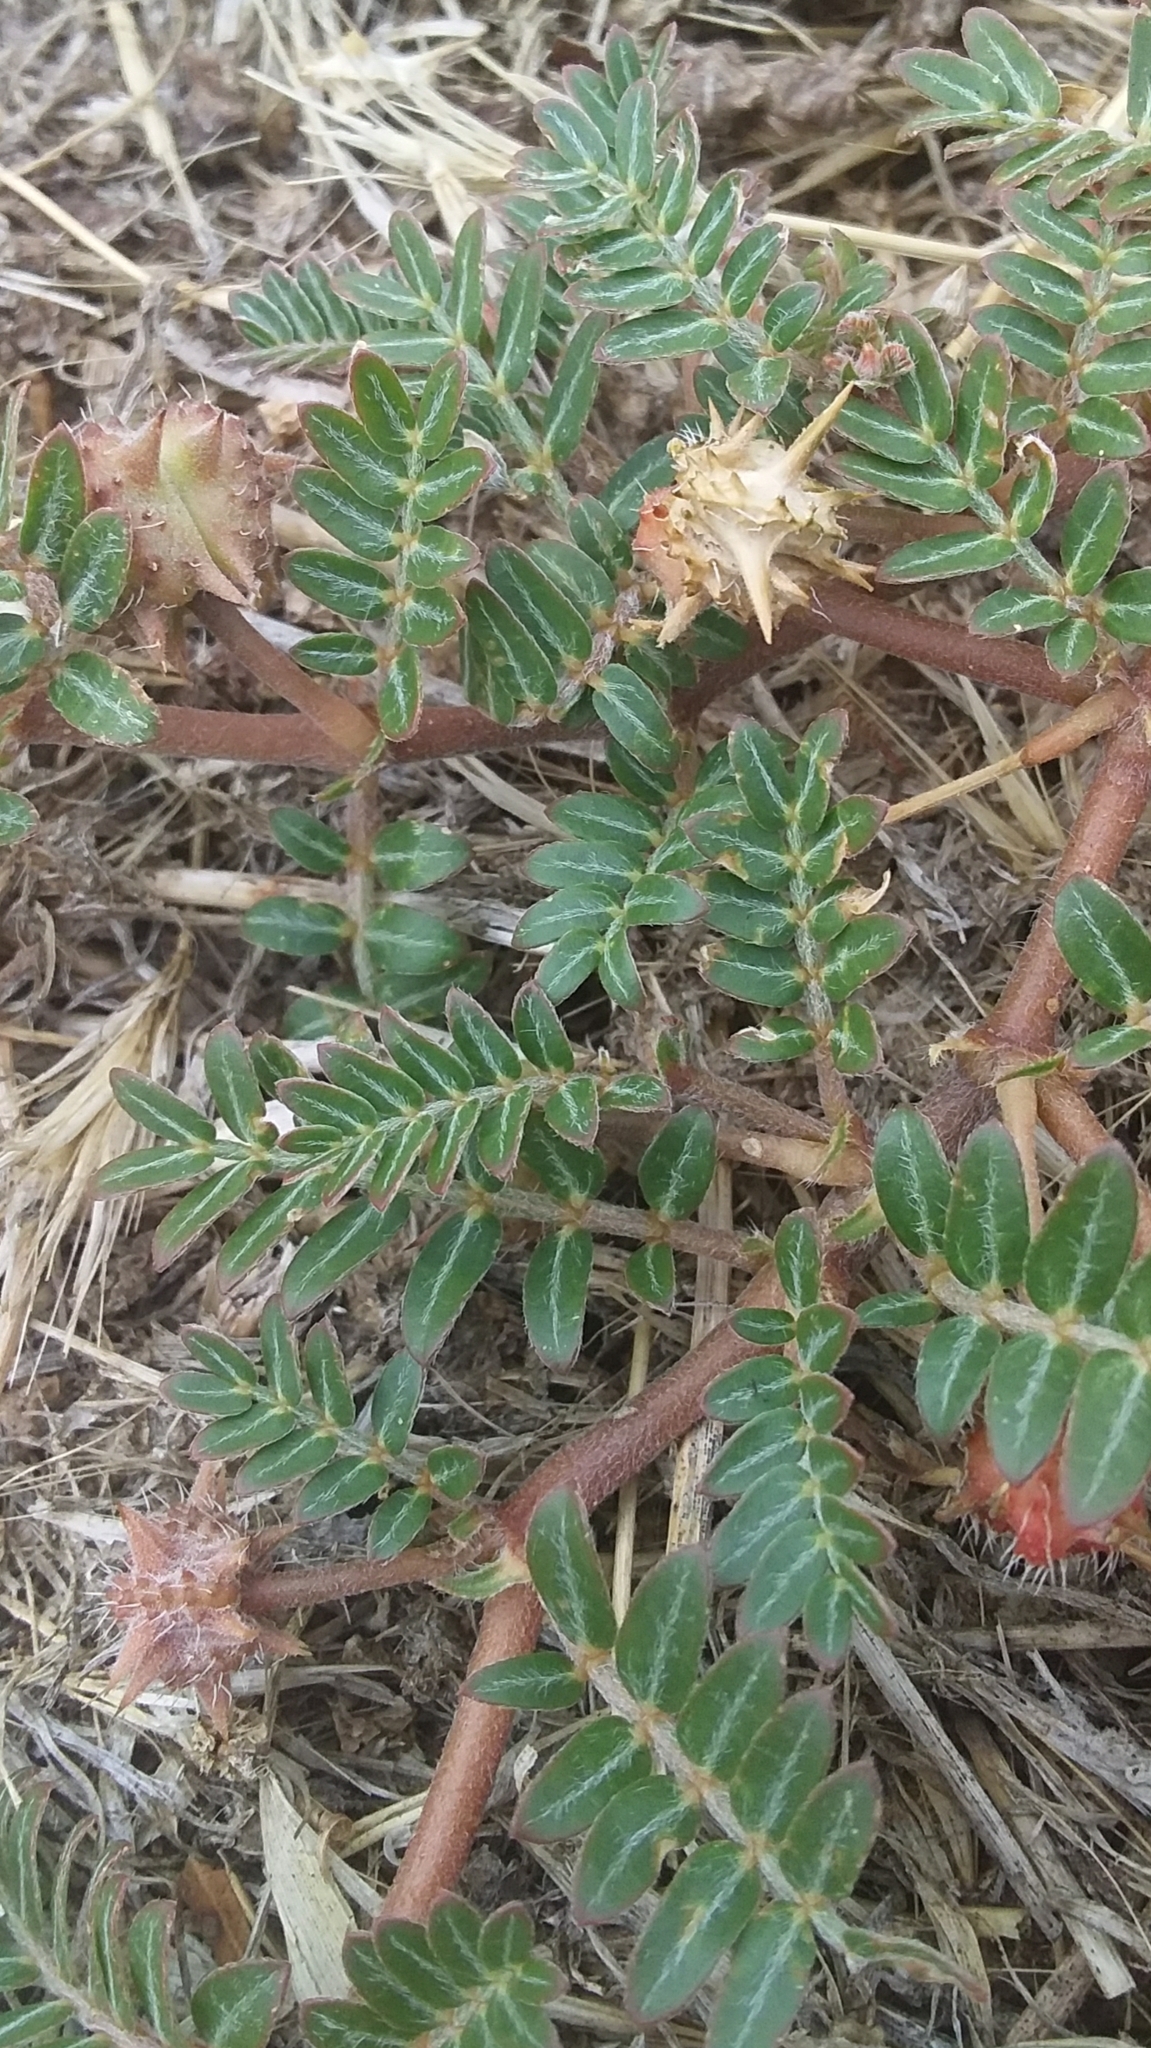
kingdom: Plantae
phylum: Tracheophyta
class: Magnoliopsida
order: Zygophyllales
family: Zygophyllaceae
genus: Tribulus
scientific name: Tribulus terrestris
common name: Puncturevine
